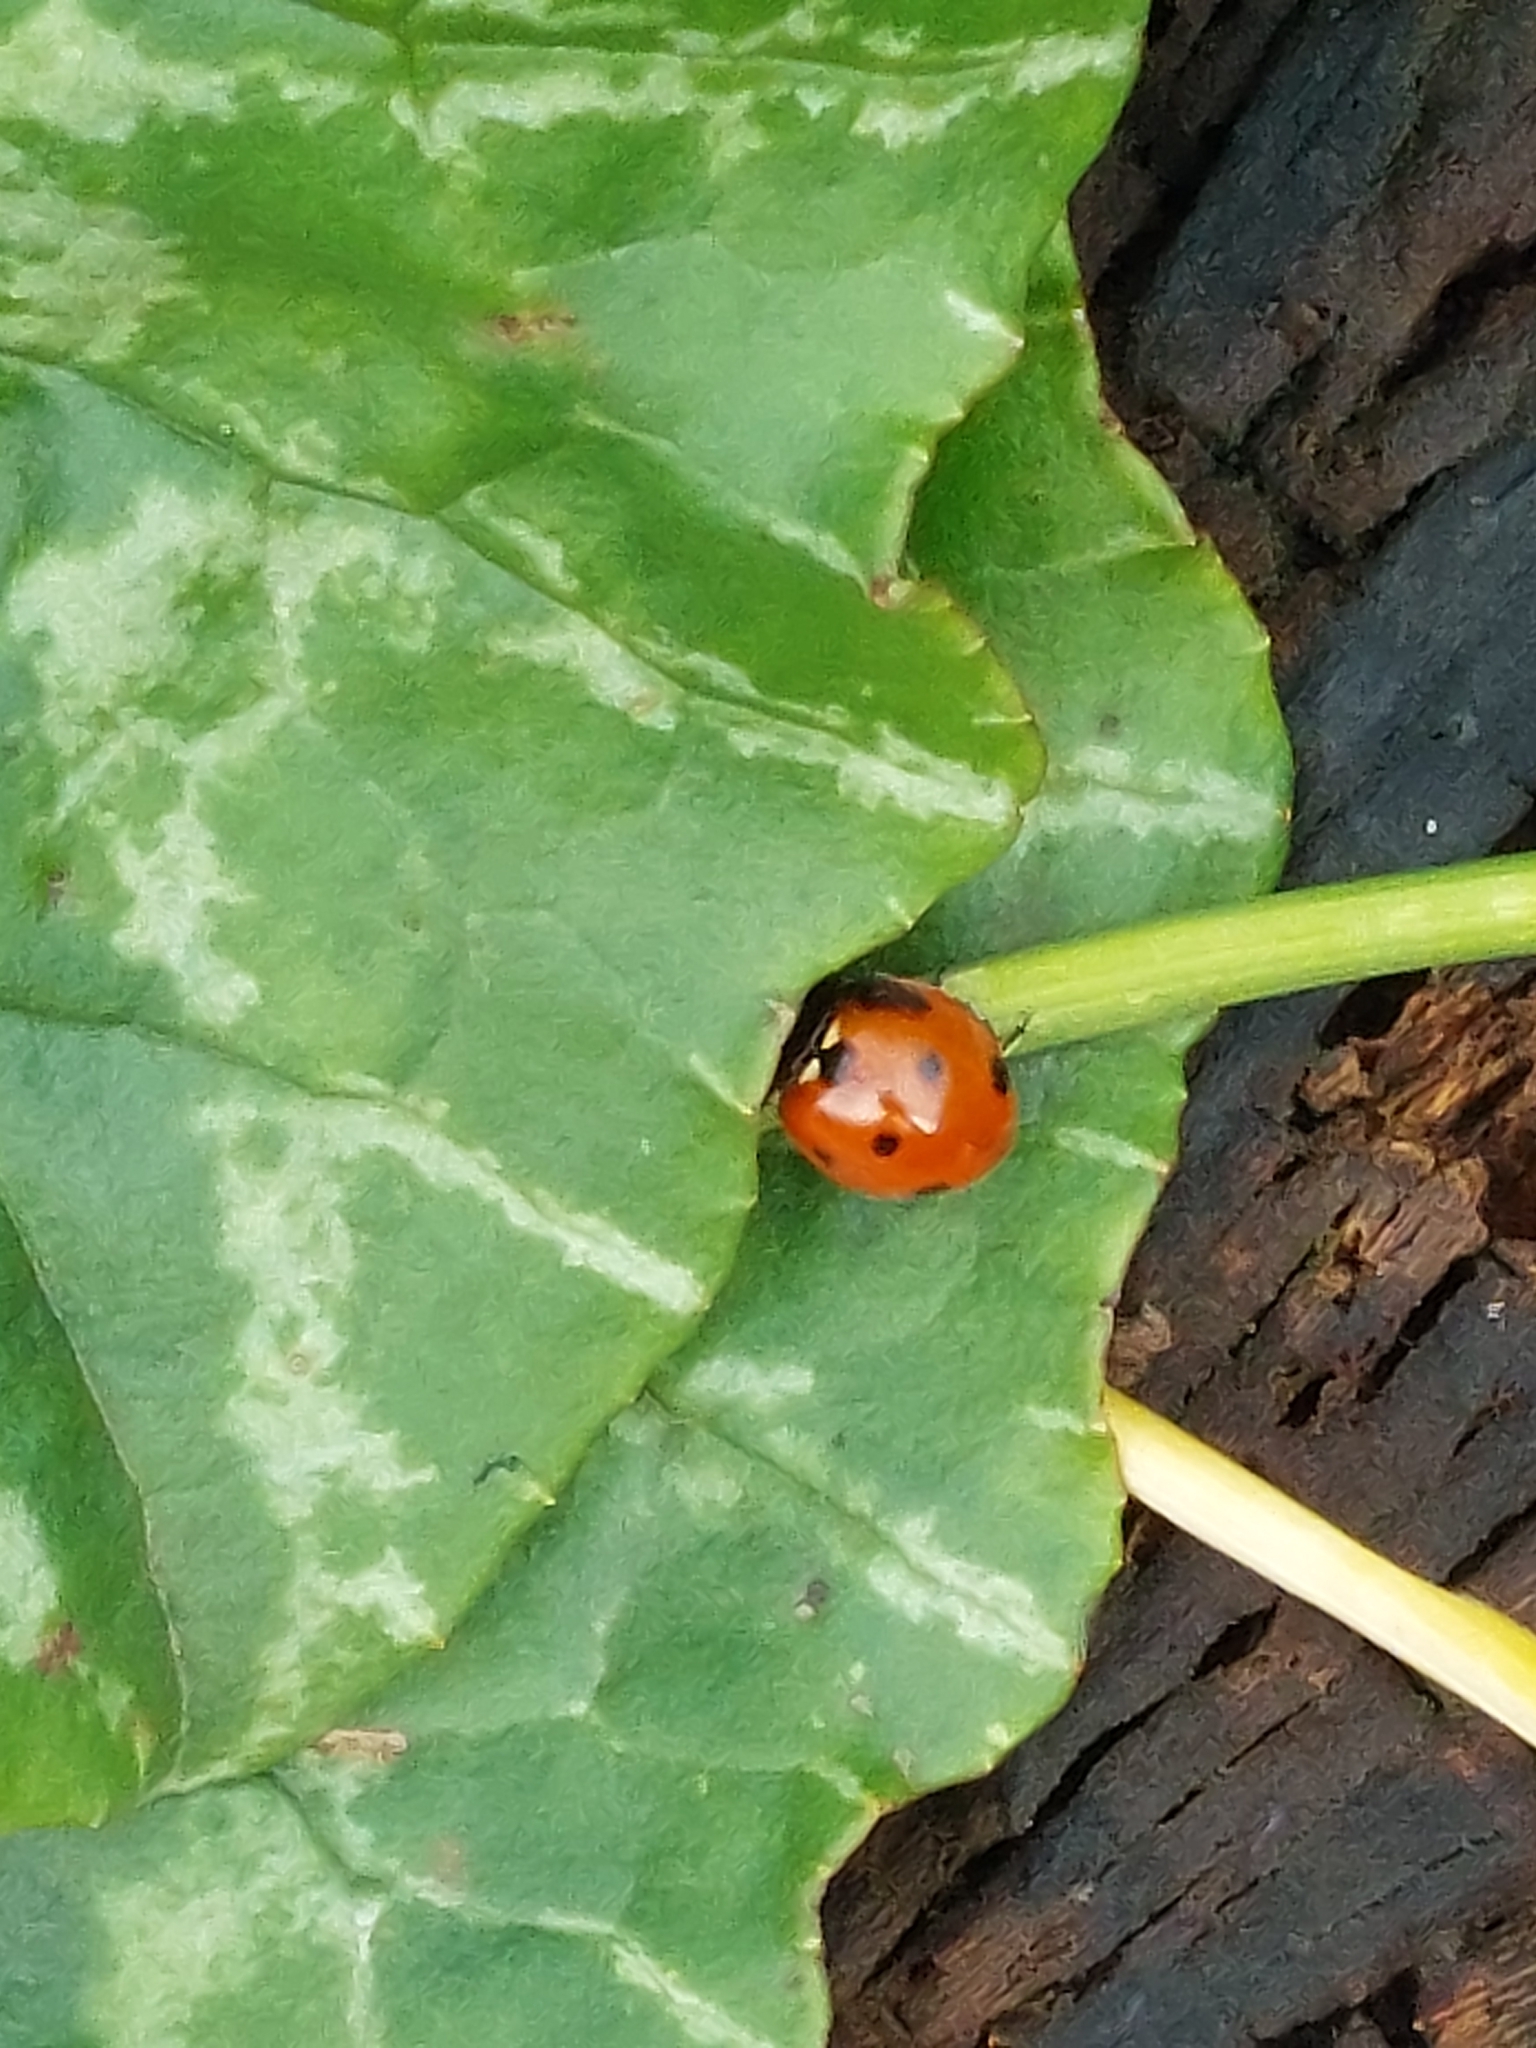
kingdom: Animalia
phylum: Arthropoda
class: Insecta
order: Coleoptera
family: Coccinellidae
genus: Coccinella
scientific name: Coccinella septempunctata
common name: Sevenspotted lady beetle
